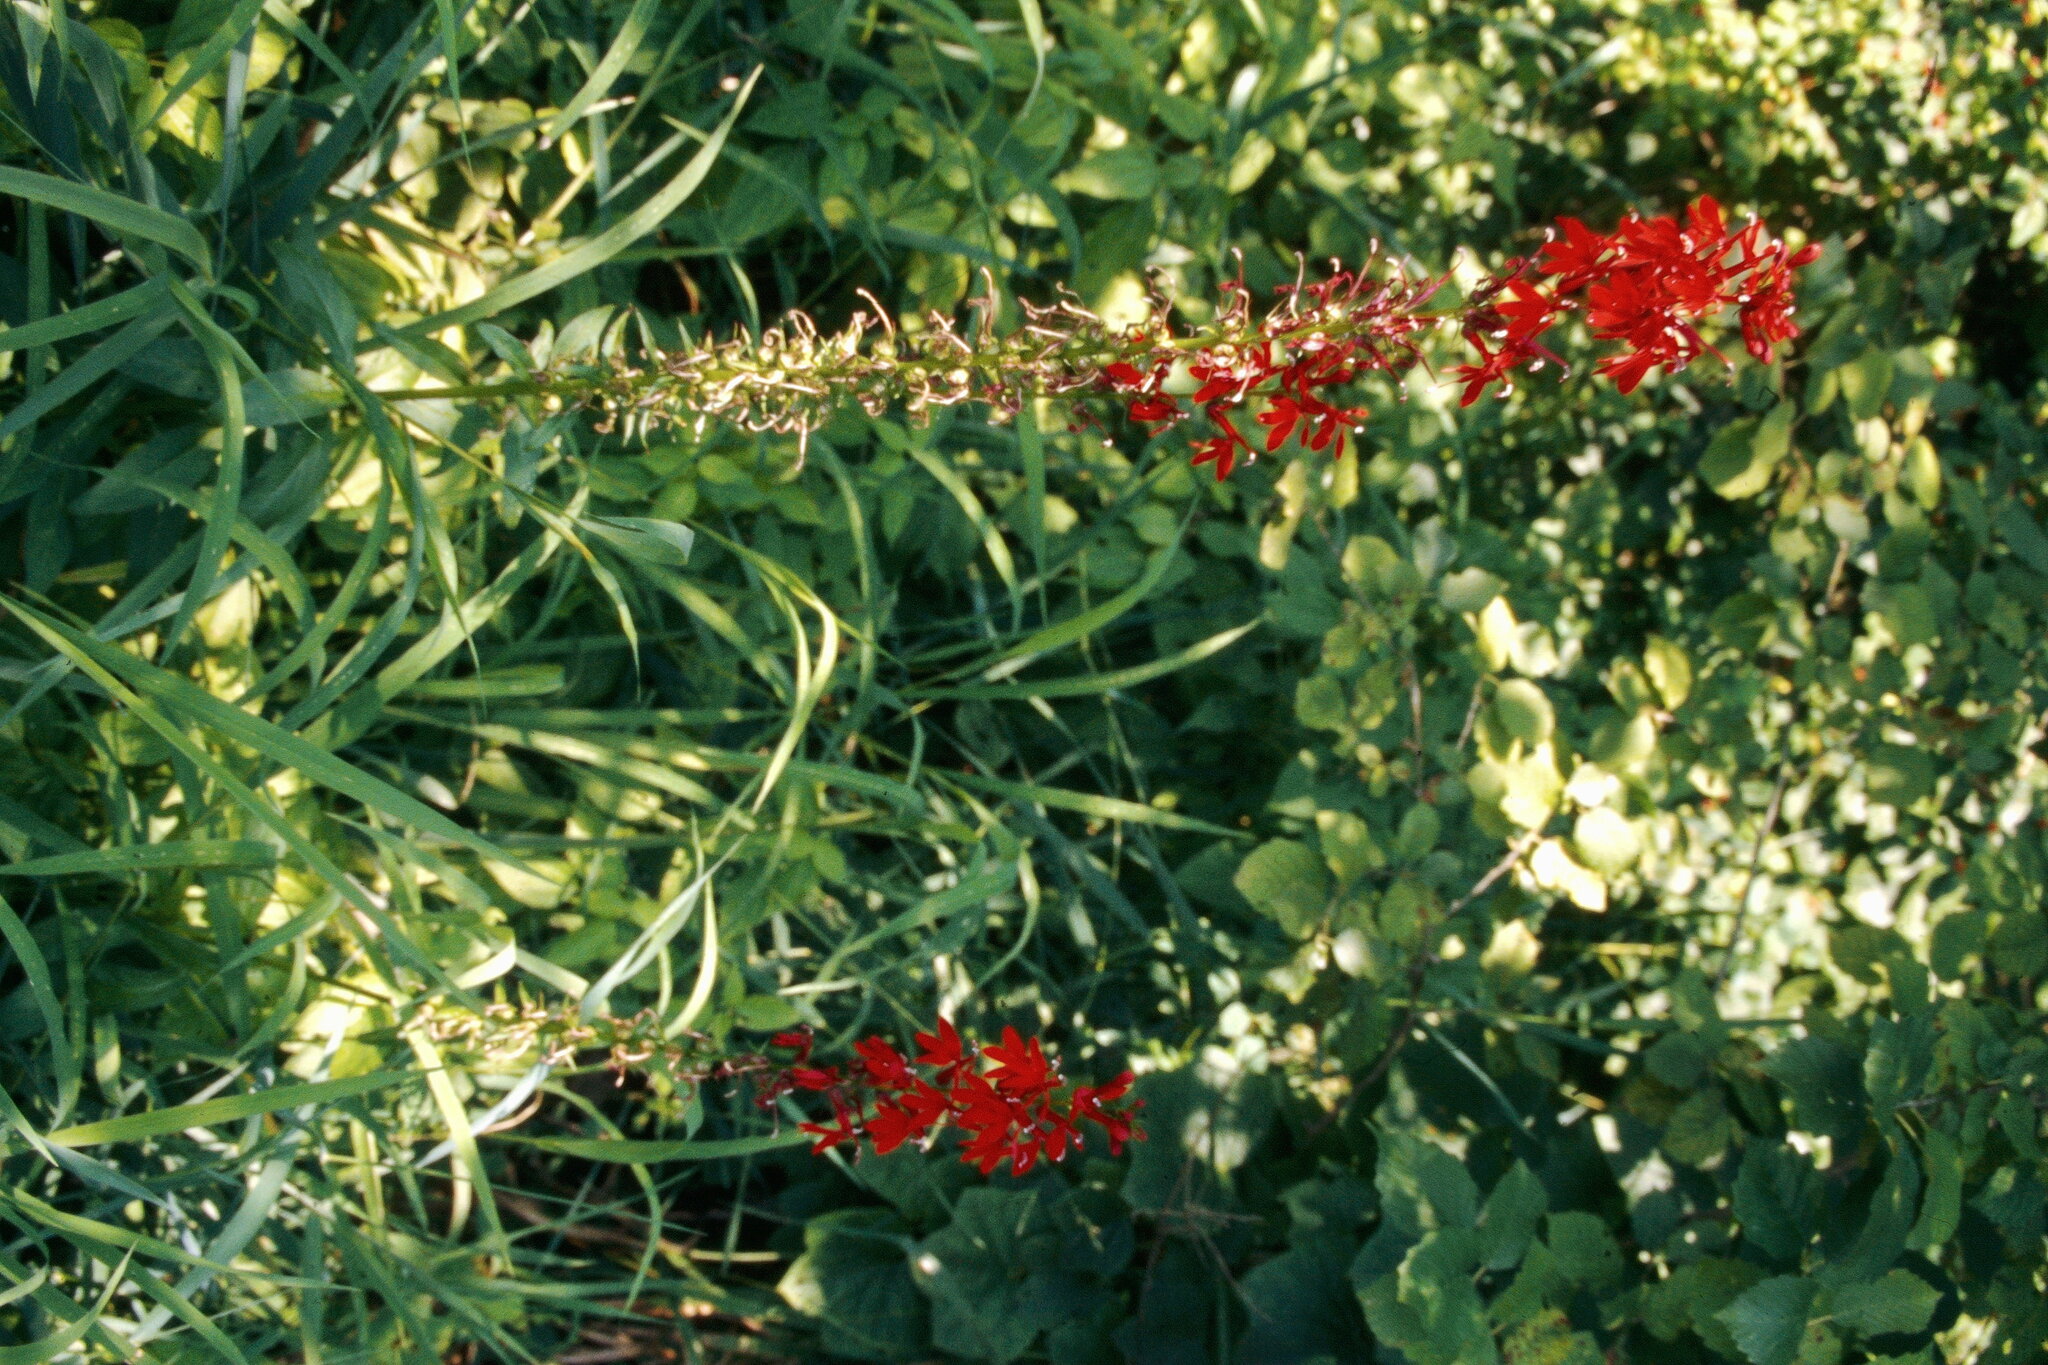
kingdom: Plantae
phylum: Tracheophyta
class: Magnoliopsida
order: Asterales
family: Campanulaceae
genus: Lobelia
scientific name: Lobelia cardinalis
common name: Cardinal flower
